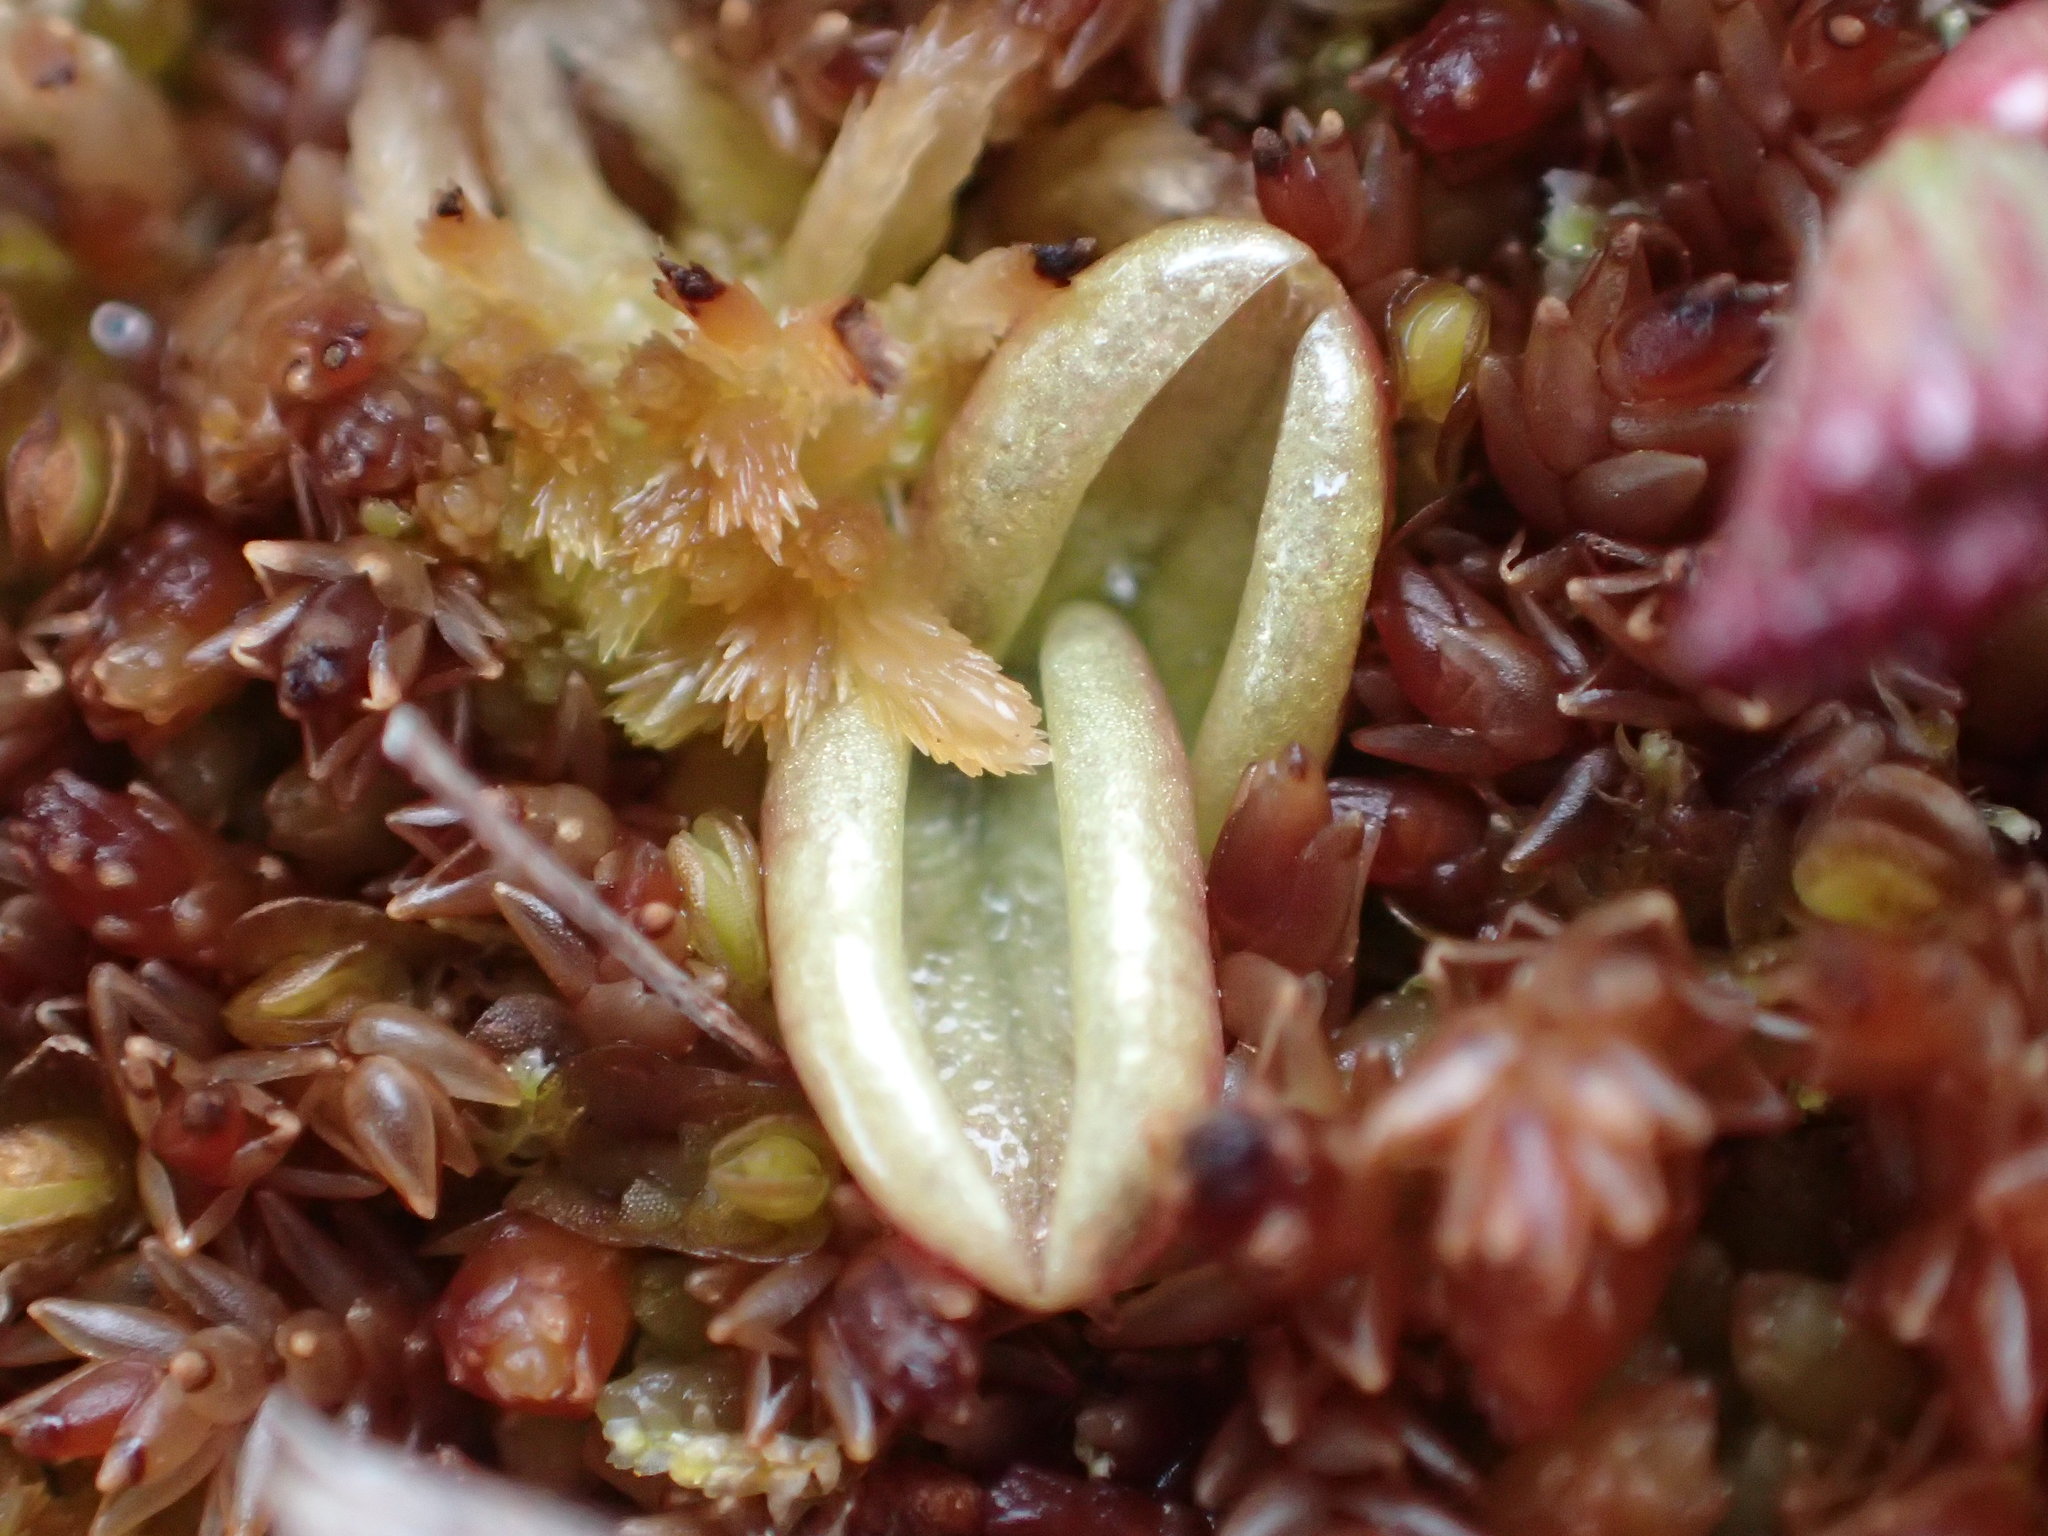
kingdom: Plantae
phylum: Tracheophyta
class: Magnoliopsida
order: Lamiales
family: Lentibulariaceae
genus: Pinguicula
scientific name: Pinguicula villosa
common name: Hairy butterwort
